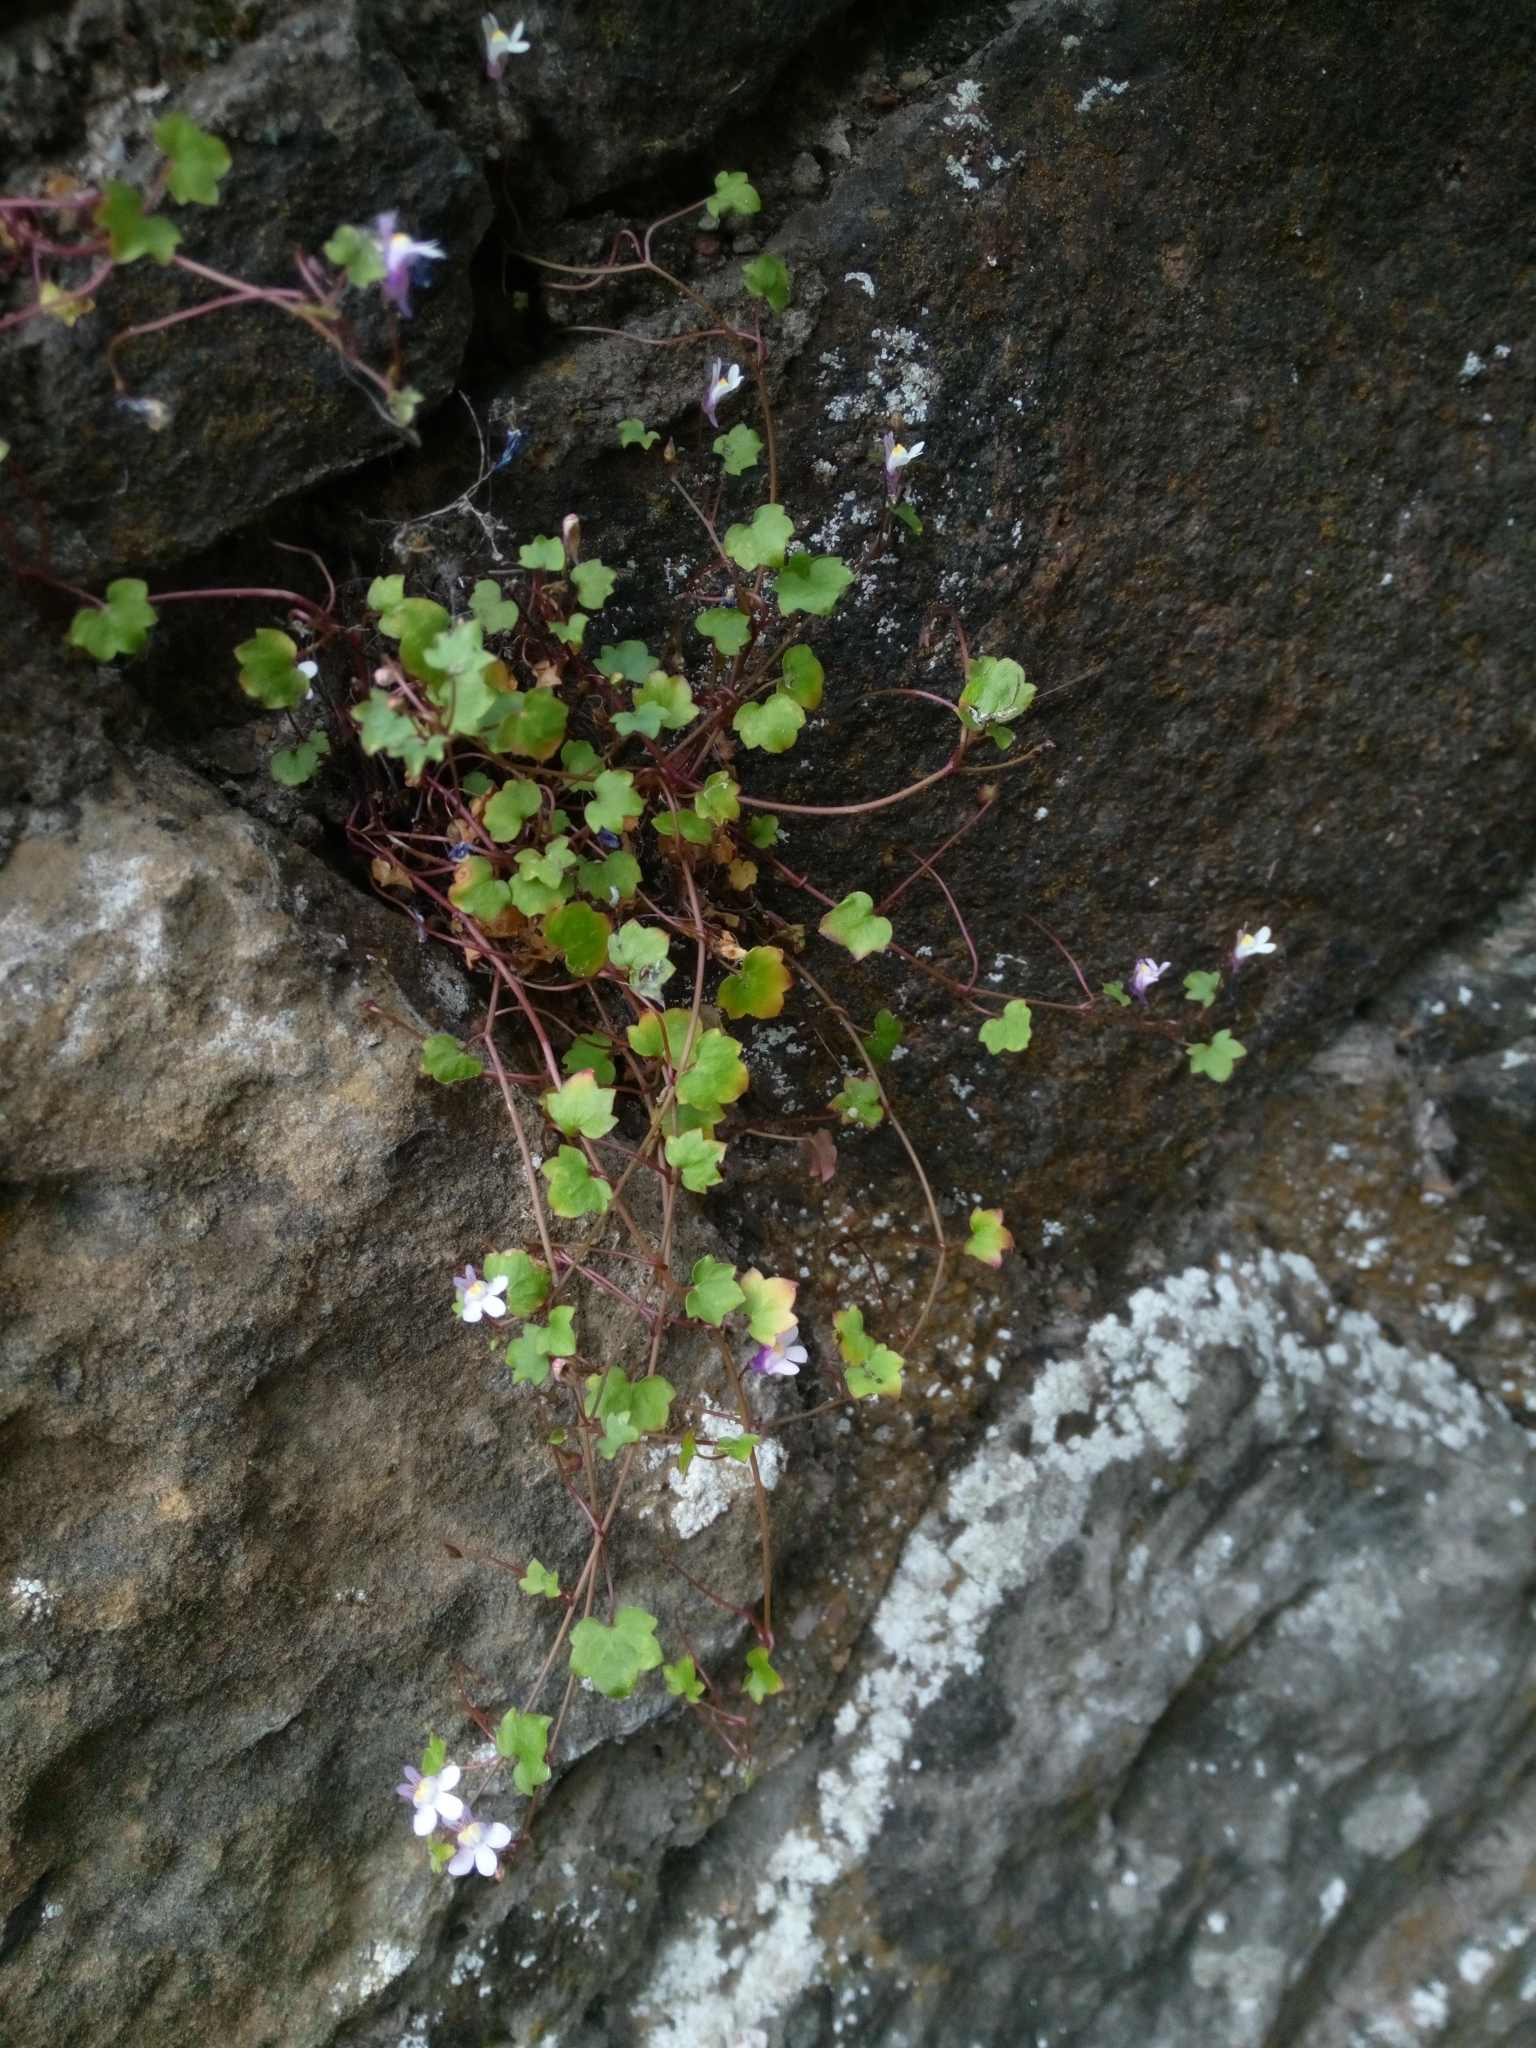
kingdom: Plantae
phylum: Tracheophyta
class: Magnoliopsida
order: Lamiales
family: Plantaginaceae
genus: Cymbalaria
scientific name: Cymbalaria muralis
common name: Ivy-leaved toadflax
